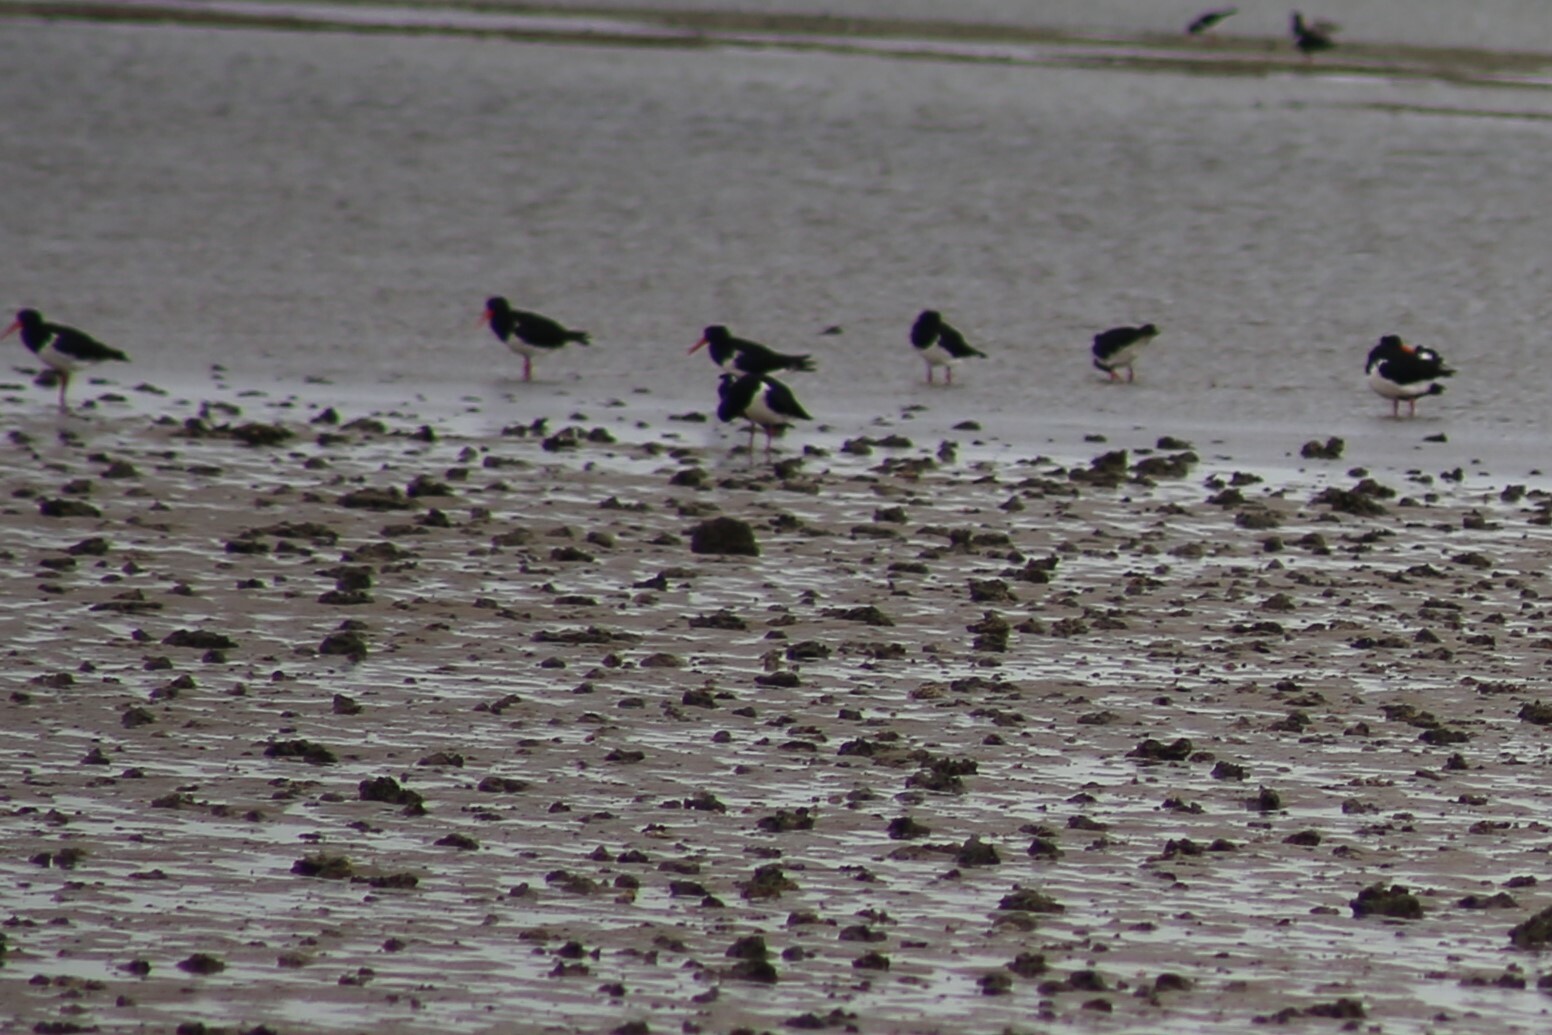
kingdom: Animalia
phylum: Chordata
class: Aves
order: Charadriiformes
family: Haematopodidae
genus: Haematopus
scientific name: Haematopus longirostris
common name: Pied oystercatcher
